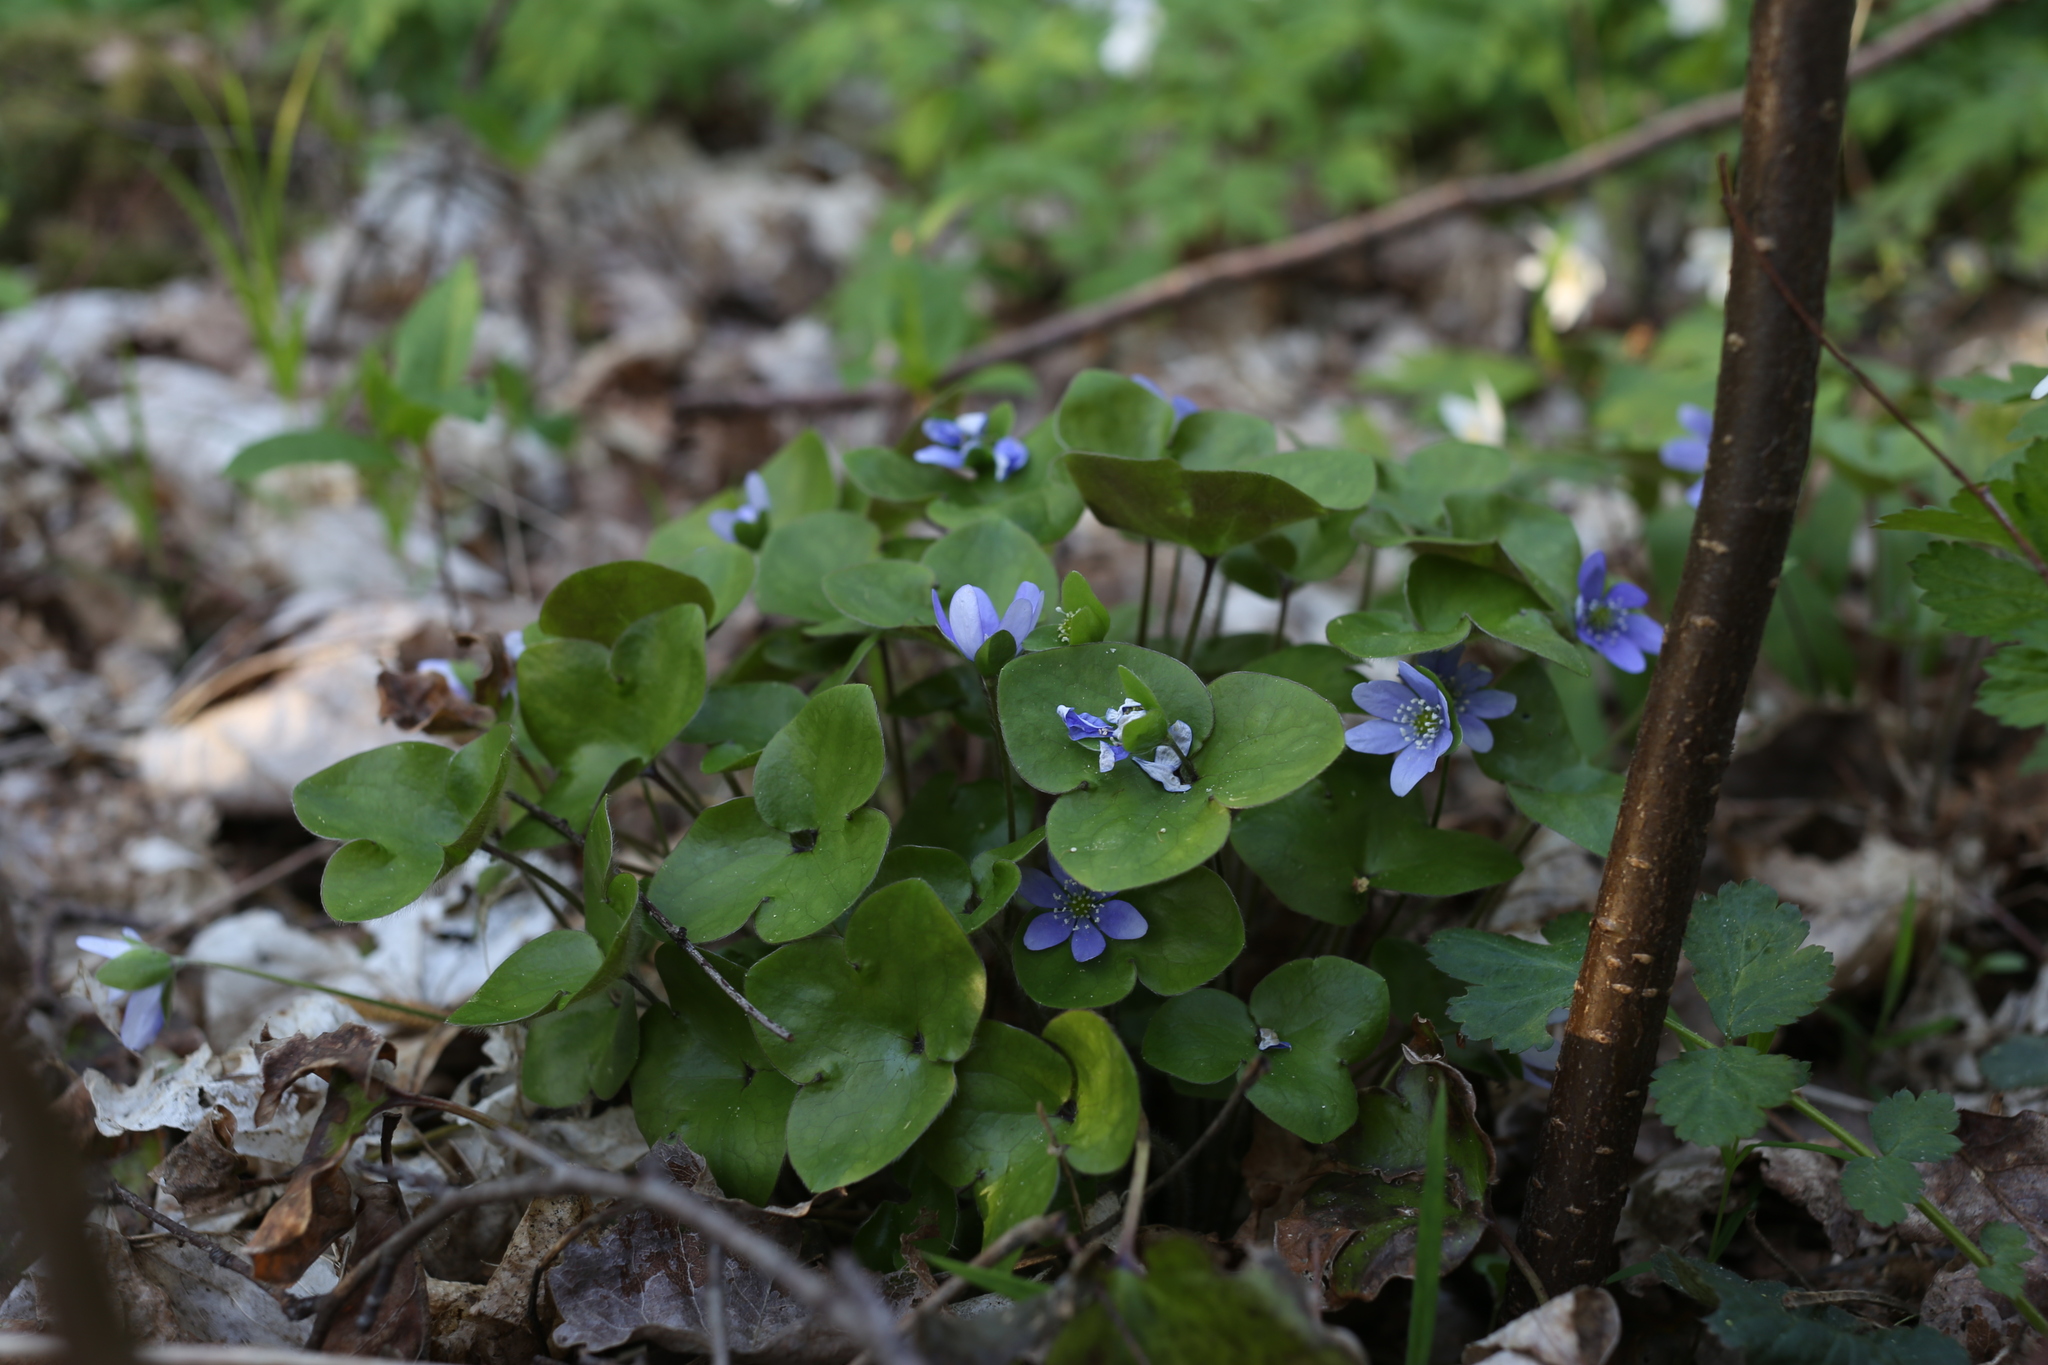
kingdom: Plantae
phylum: Tracheophyta
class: Magnoliopsida
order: Ranunculales
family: Ranunculaceae
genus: Hepatica
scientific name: Hepatica nobilis
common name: Liverleaf
